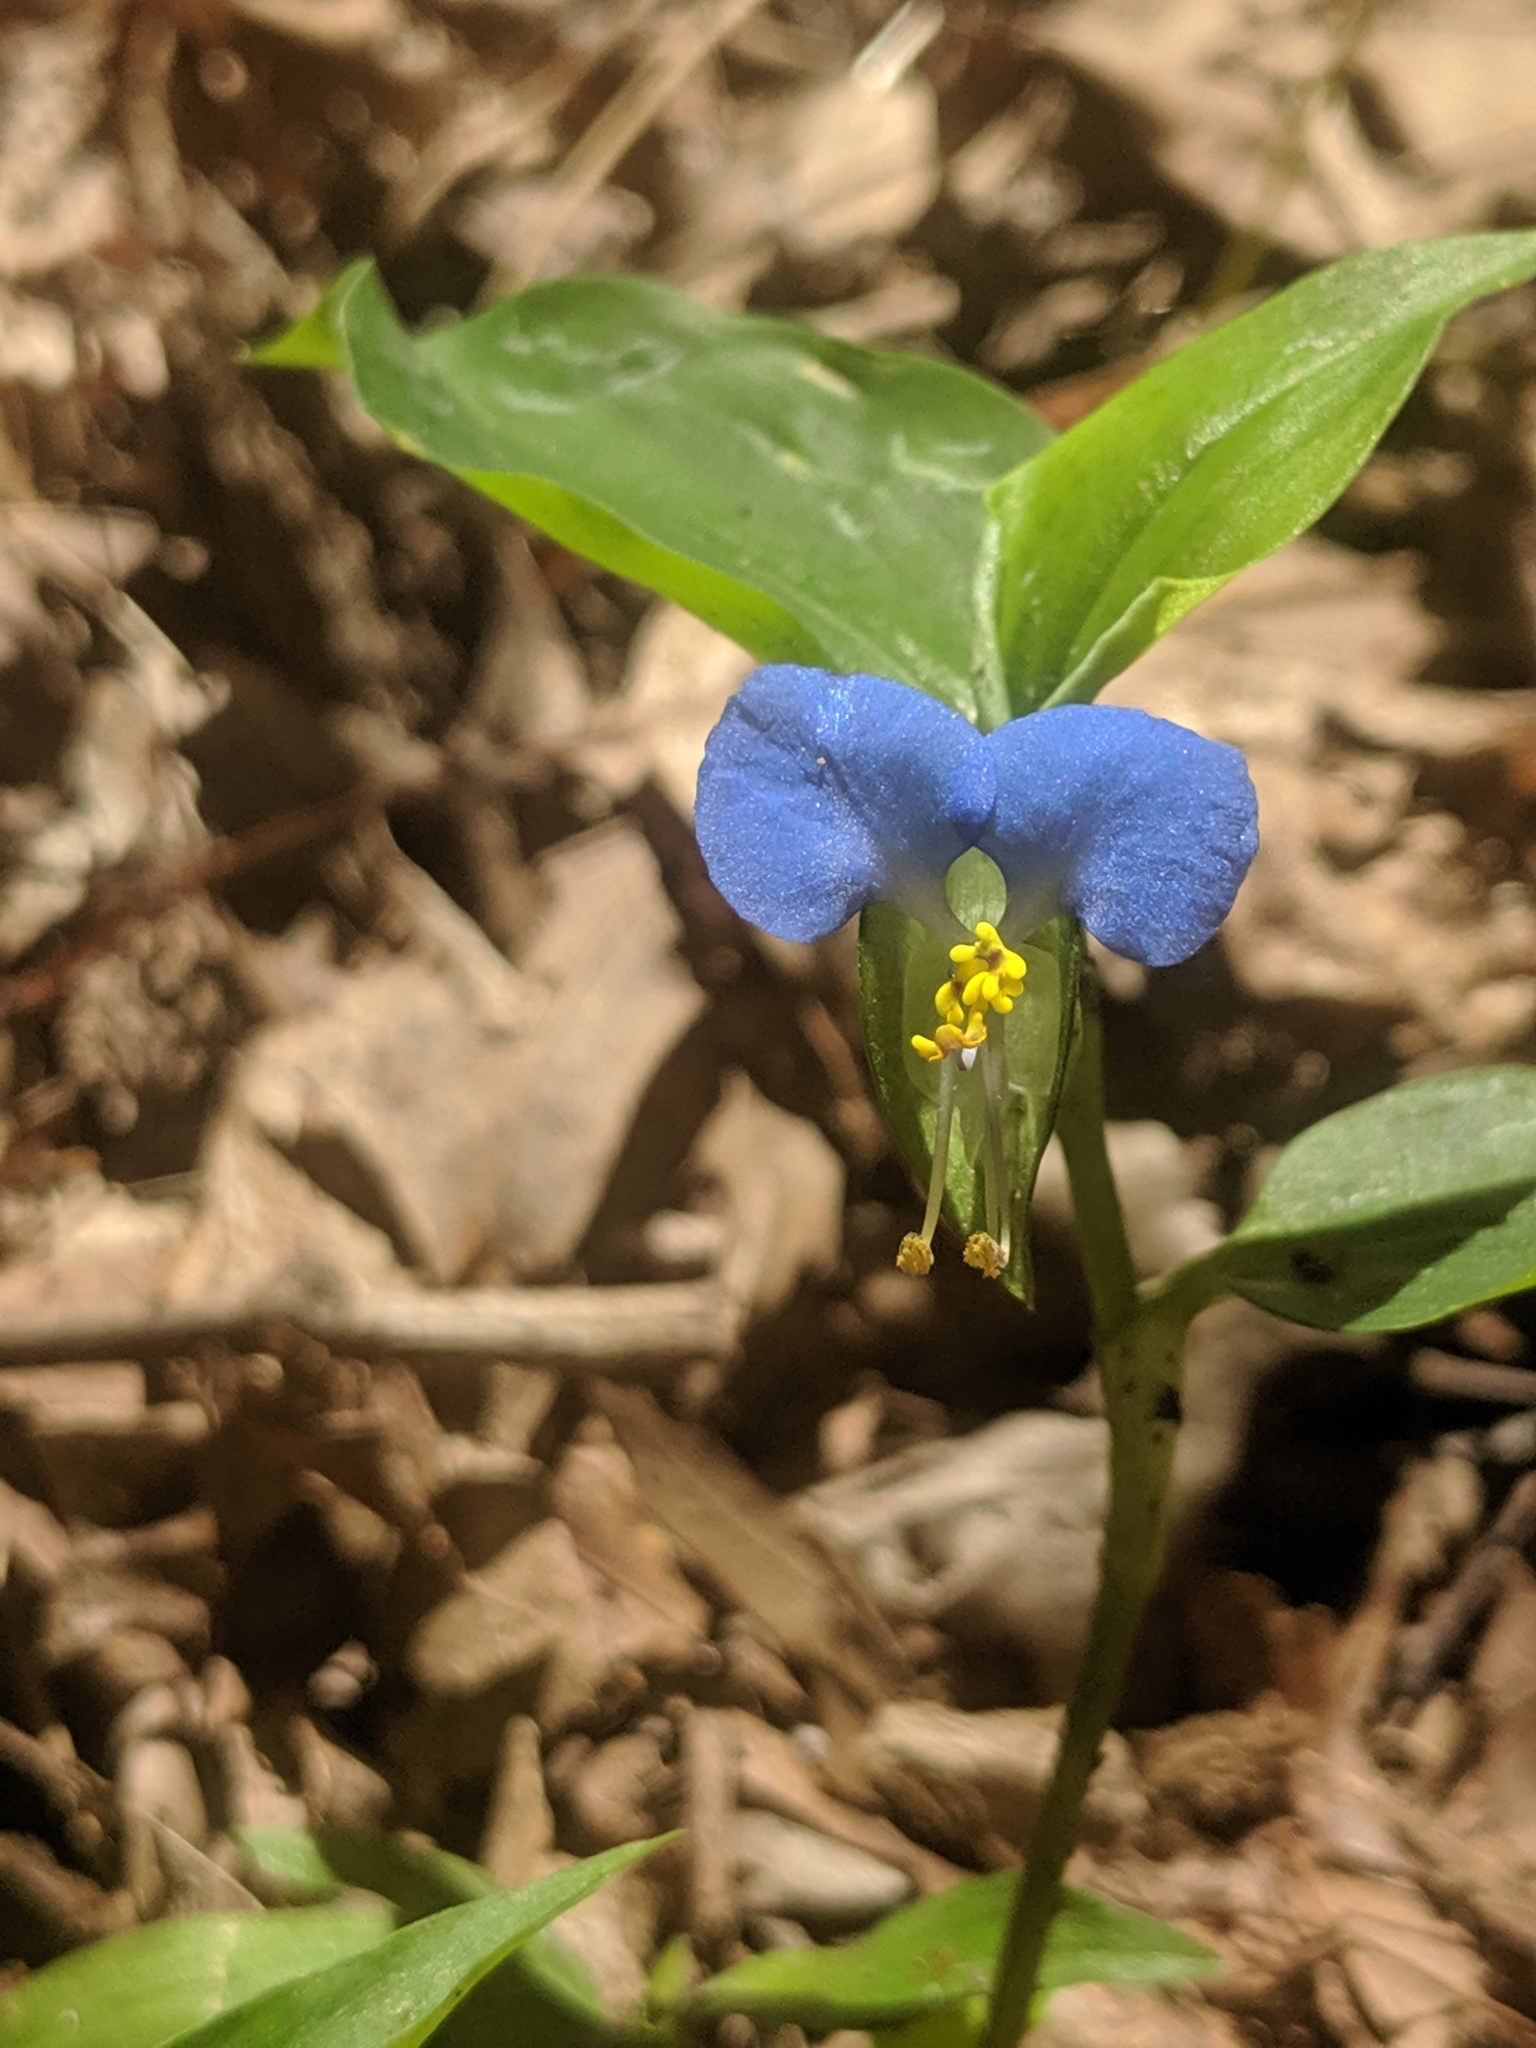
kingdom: Plantae
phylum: Tracheophyta
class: Liliopsida
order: Commelinales
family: Commelinaceae
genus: Commelina
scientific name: Commelina communis
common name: Asiatic dayflower
